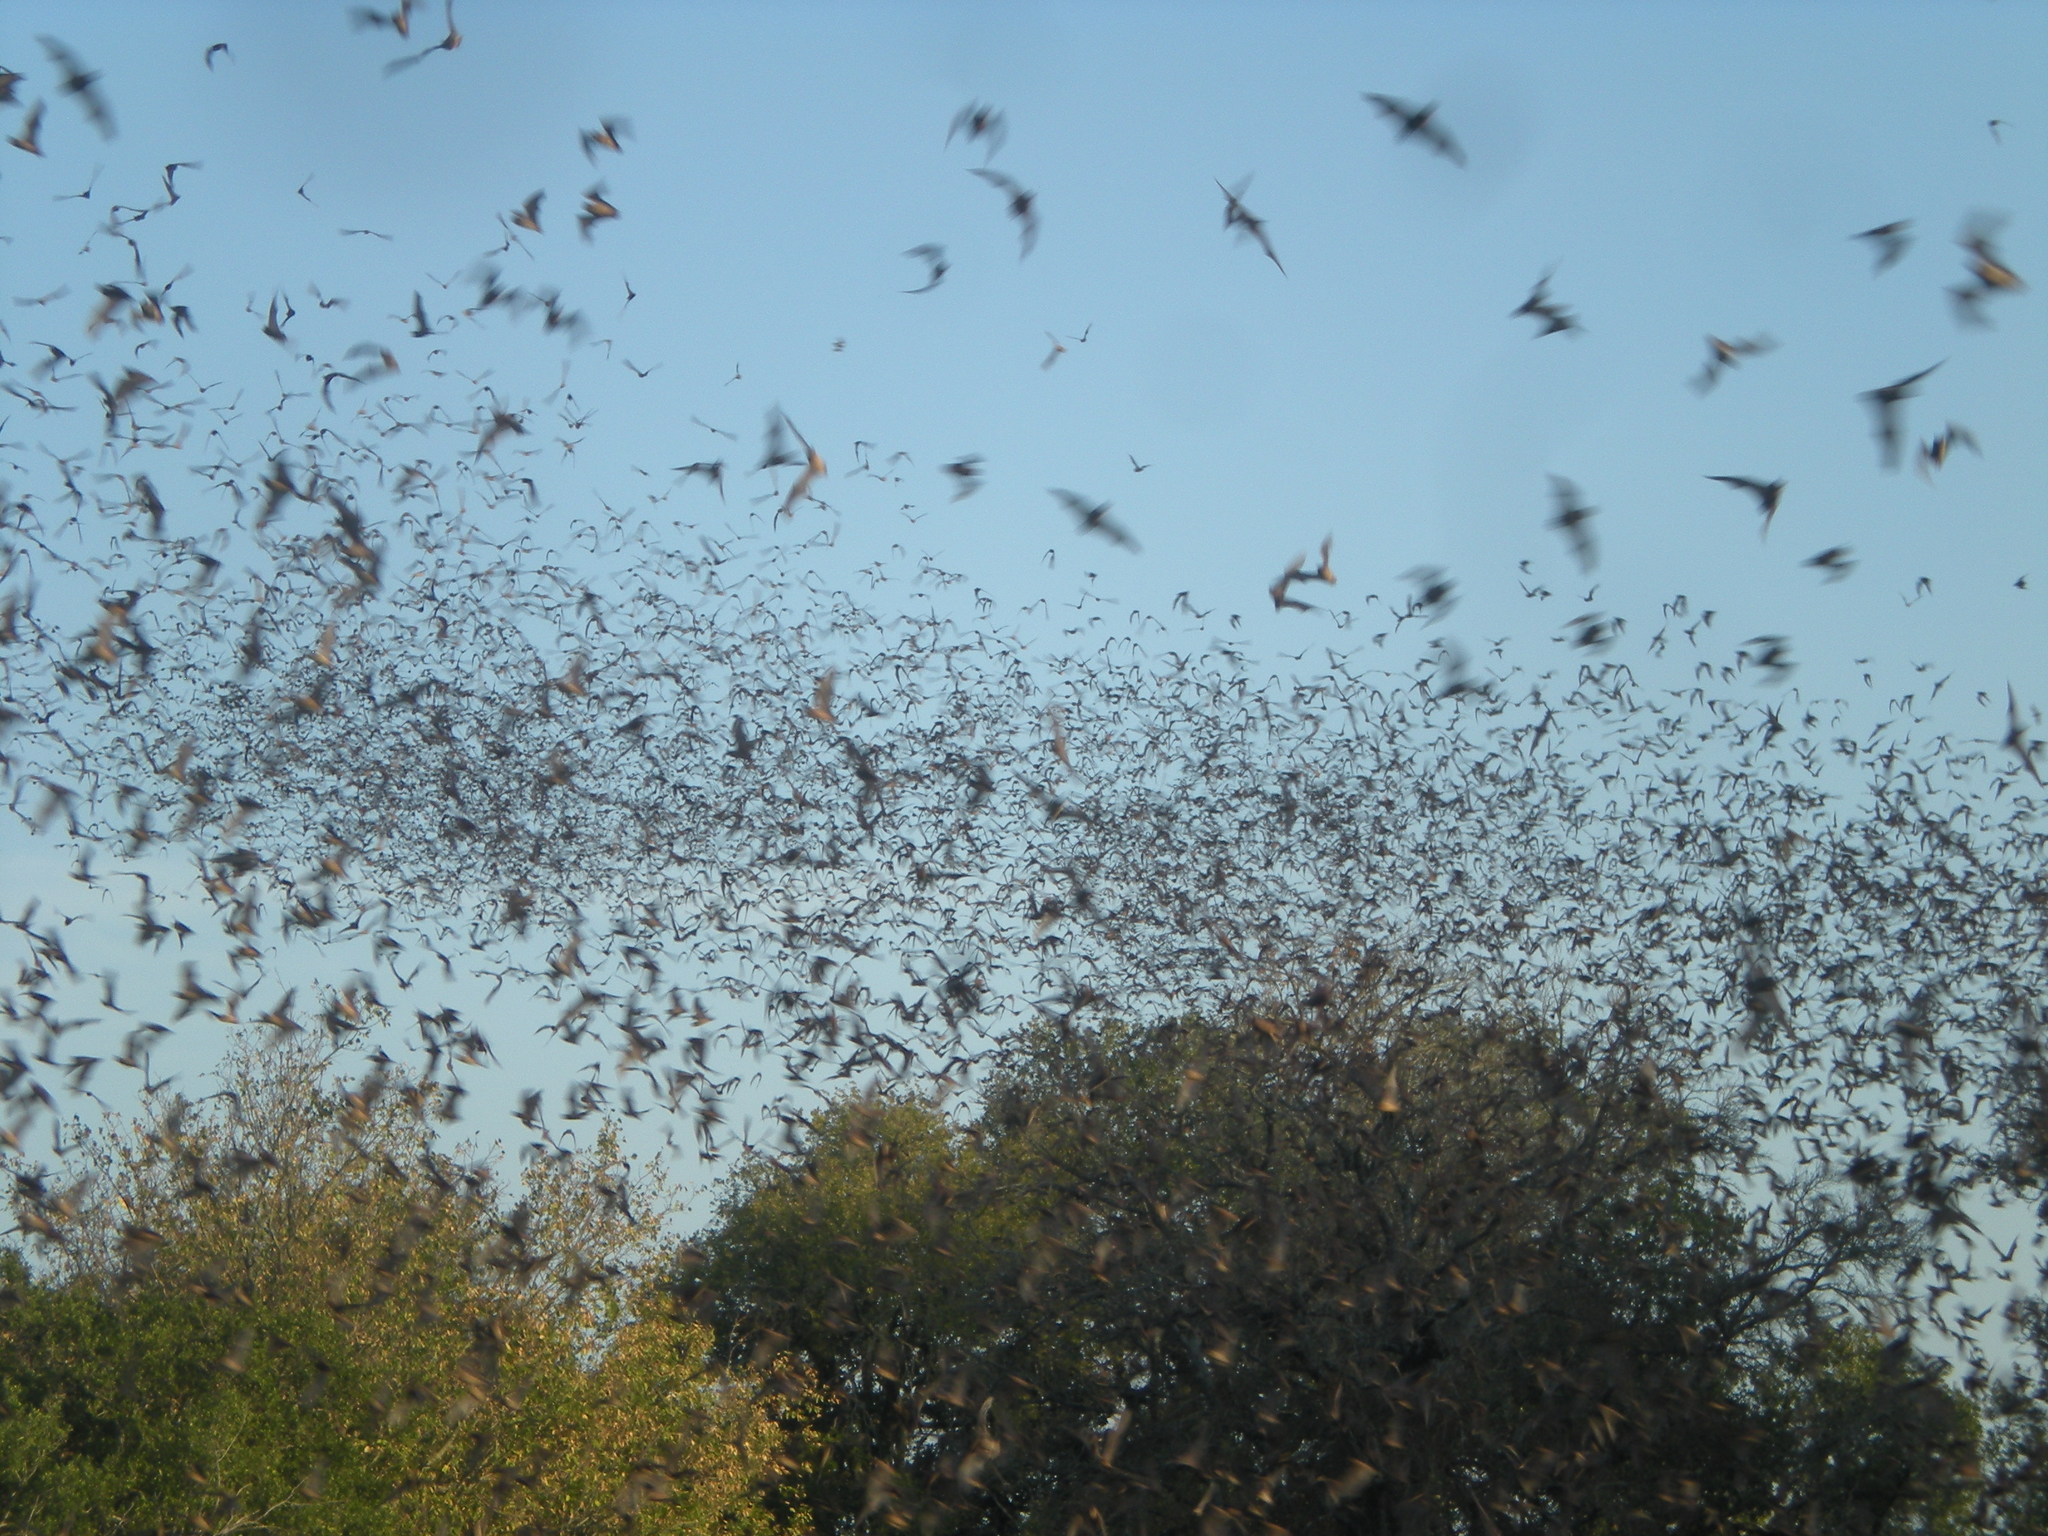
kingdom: Animalia
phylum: Chordata
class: Mammalia
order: Chiroptera
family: Molossidae
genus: Tadarida
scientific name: Tadarida brasiliensis
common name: Mexican free-tailed bat
